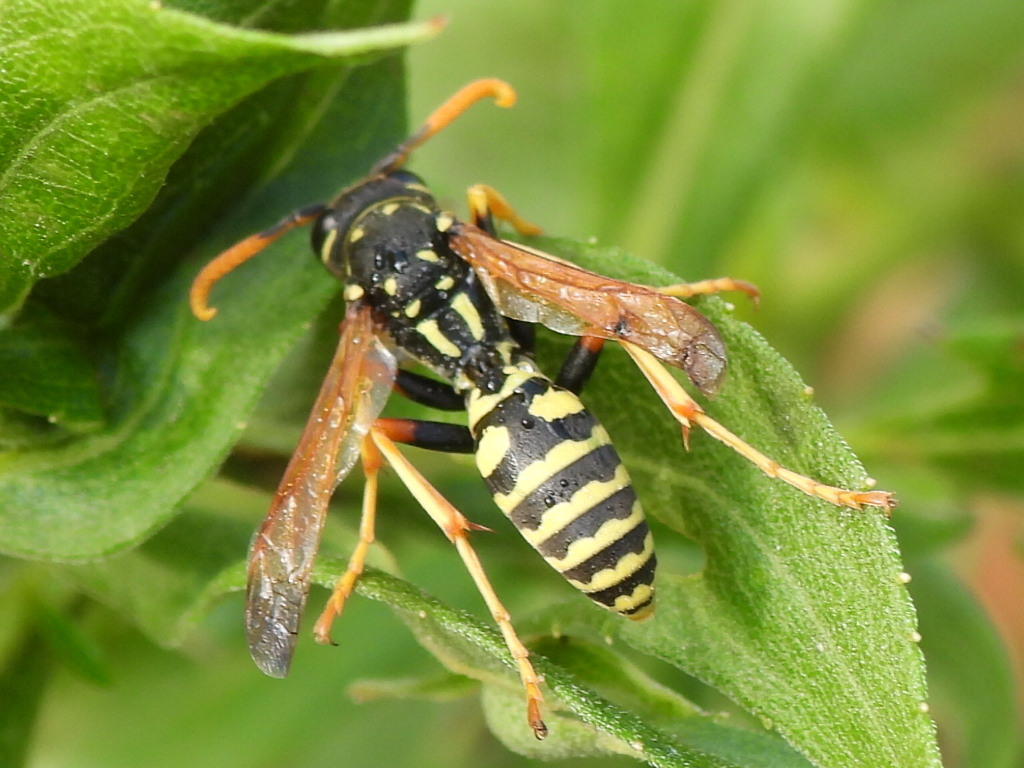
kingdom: Animalia
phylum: Arthropoda
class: Insecta
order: Hymenoptera
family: Eumenidae
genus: Polistes
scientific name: Polistes dominula
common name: Paper wasp
